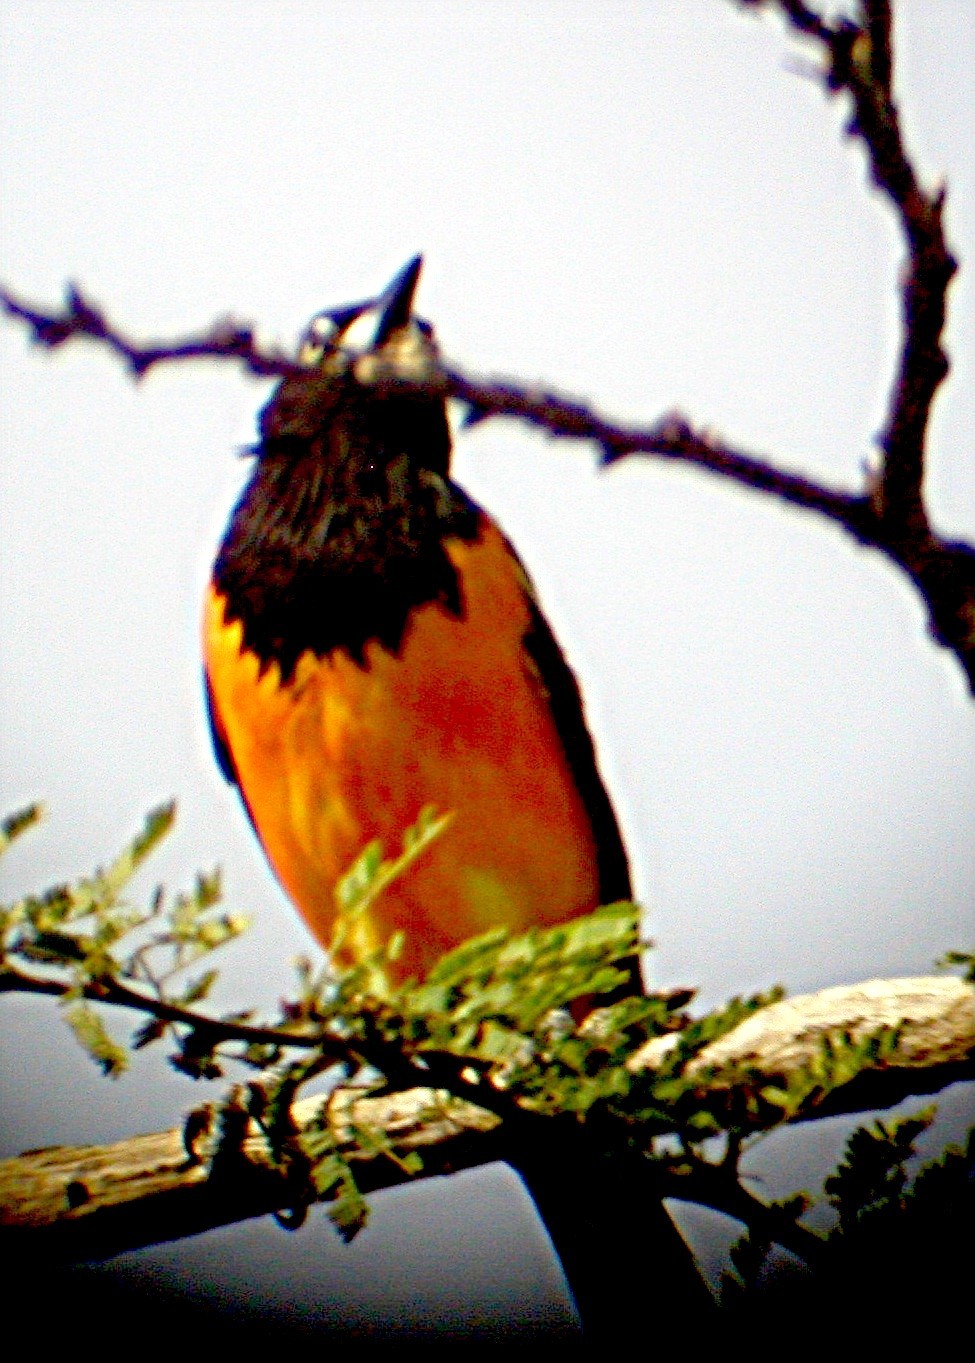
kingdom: Animalia
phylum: Chordata
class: Aves
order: Passeriformes
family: Icteridae
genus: Icterus
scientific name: Icterus icterus
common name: Venezuelan troupial
